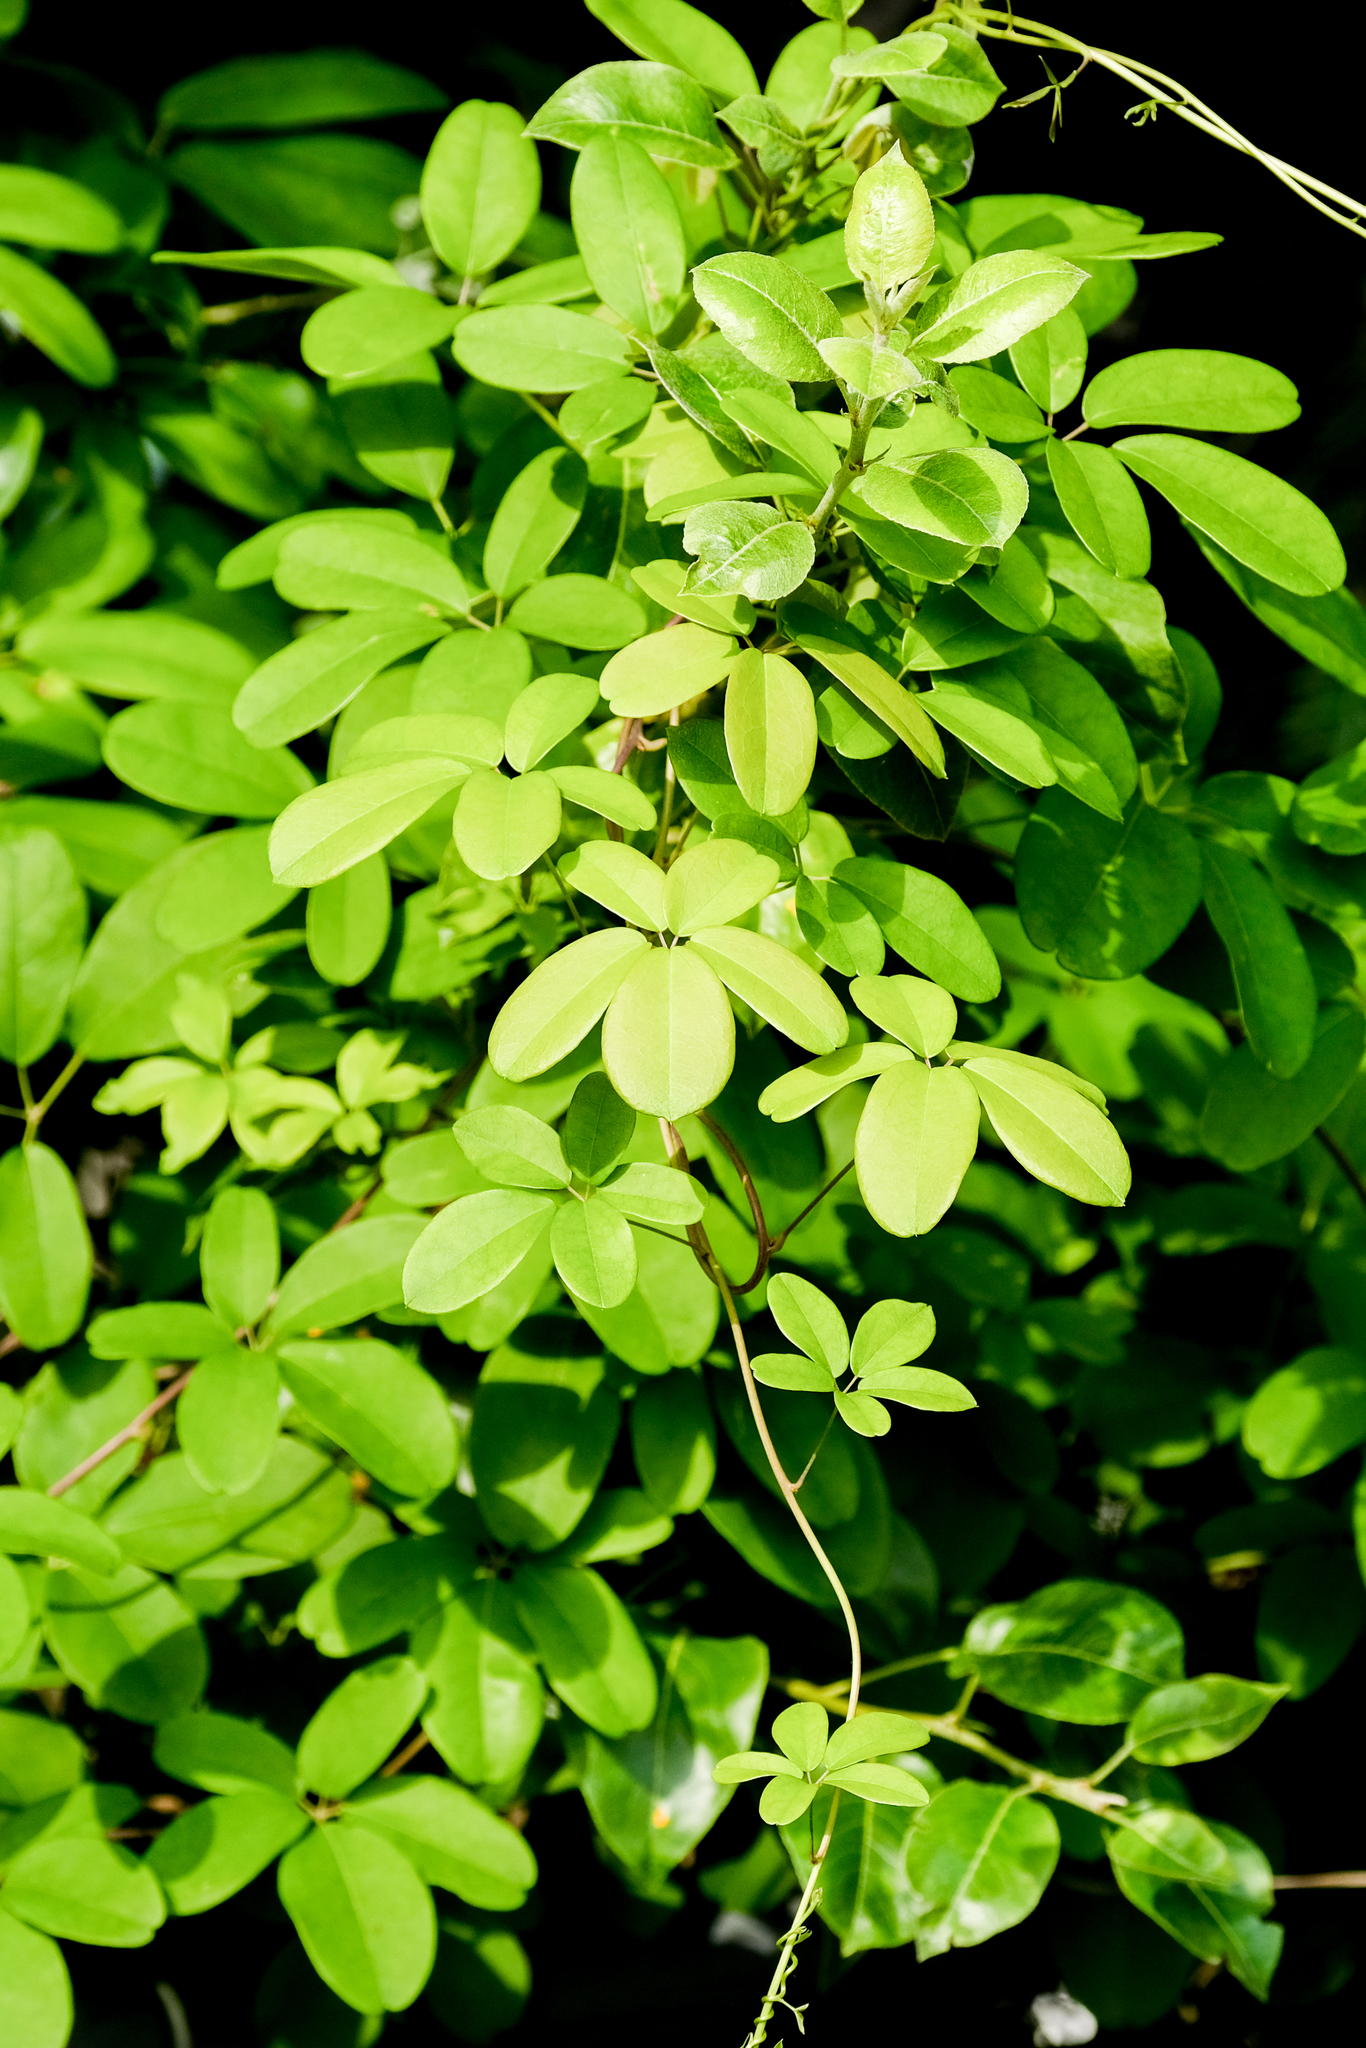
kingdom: Plantae
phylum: Tracheophyta
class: Magnoliopsida
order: Ranunculales
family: Lardizabalaceae
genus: Akebia
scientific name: Akebia quinata
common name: Five-leaf akebia
